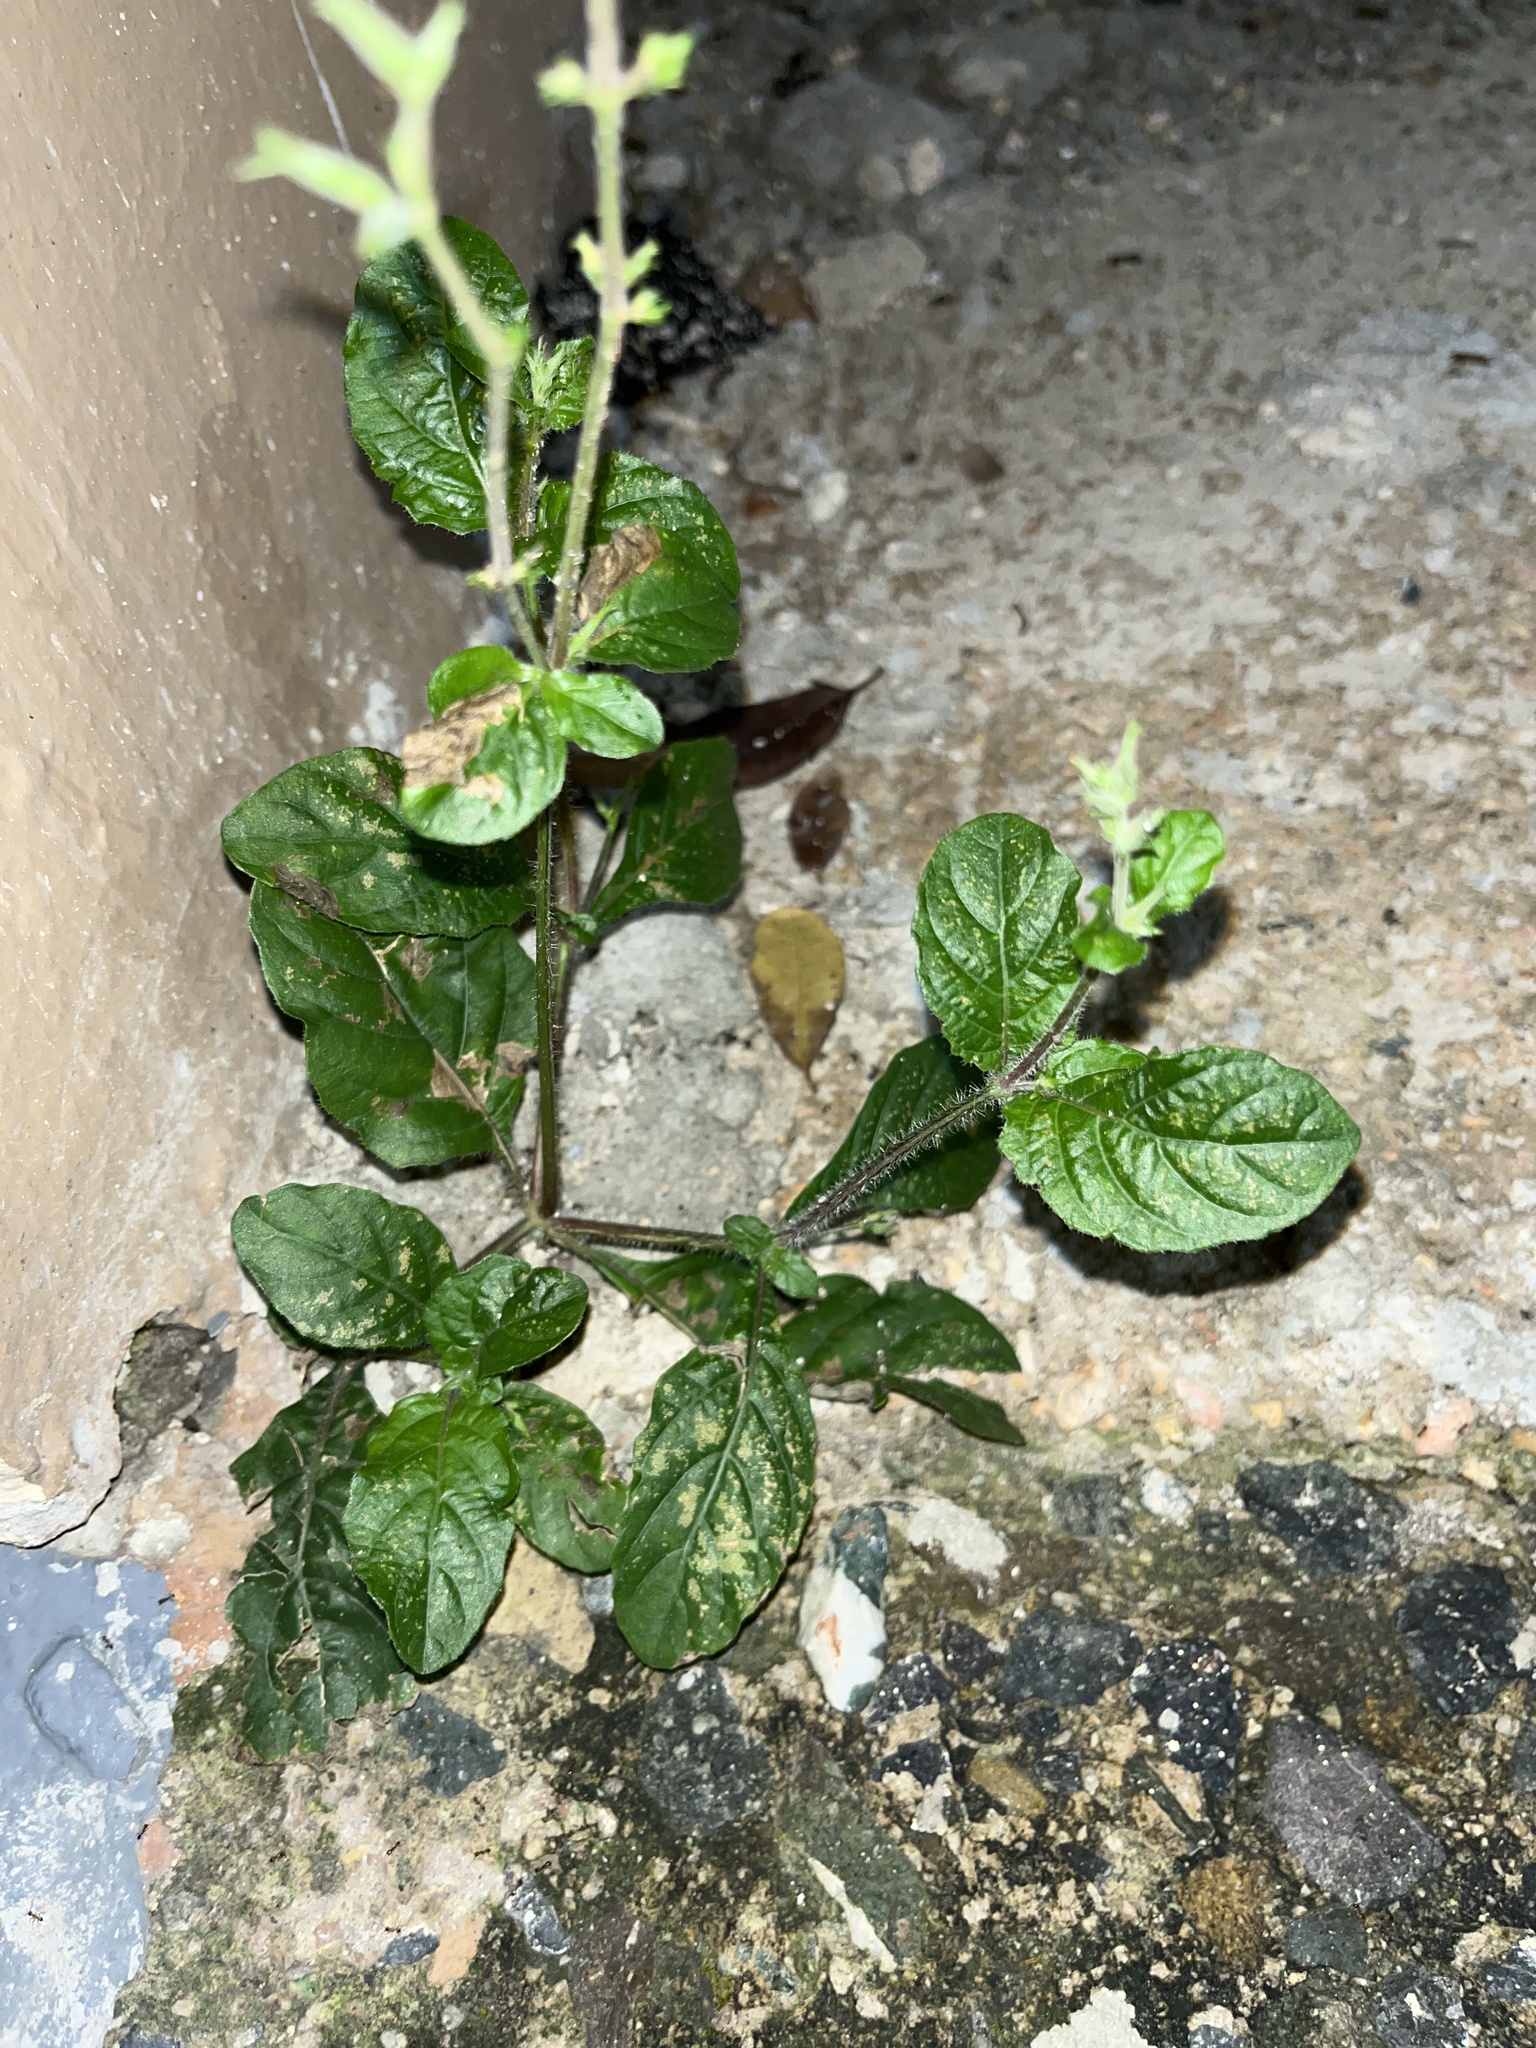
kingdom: Plantae
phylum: Tracheophyta
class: Magnoliopsida
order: Asterales
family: Asteraceae
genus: Cyanthillium
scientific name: Cyanthillium cinereum
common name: Little ironweed
